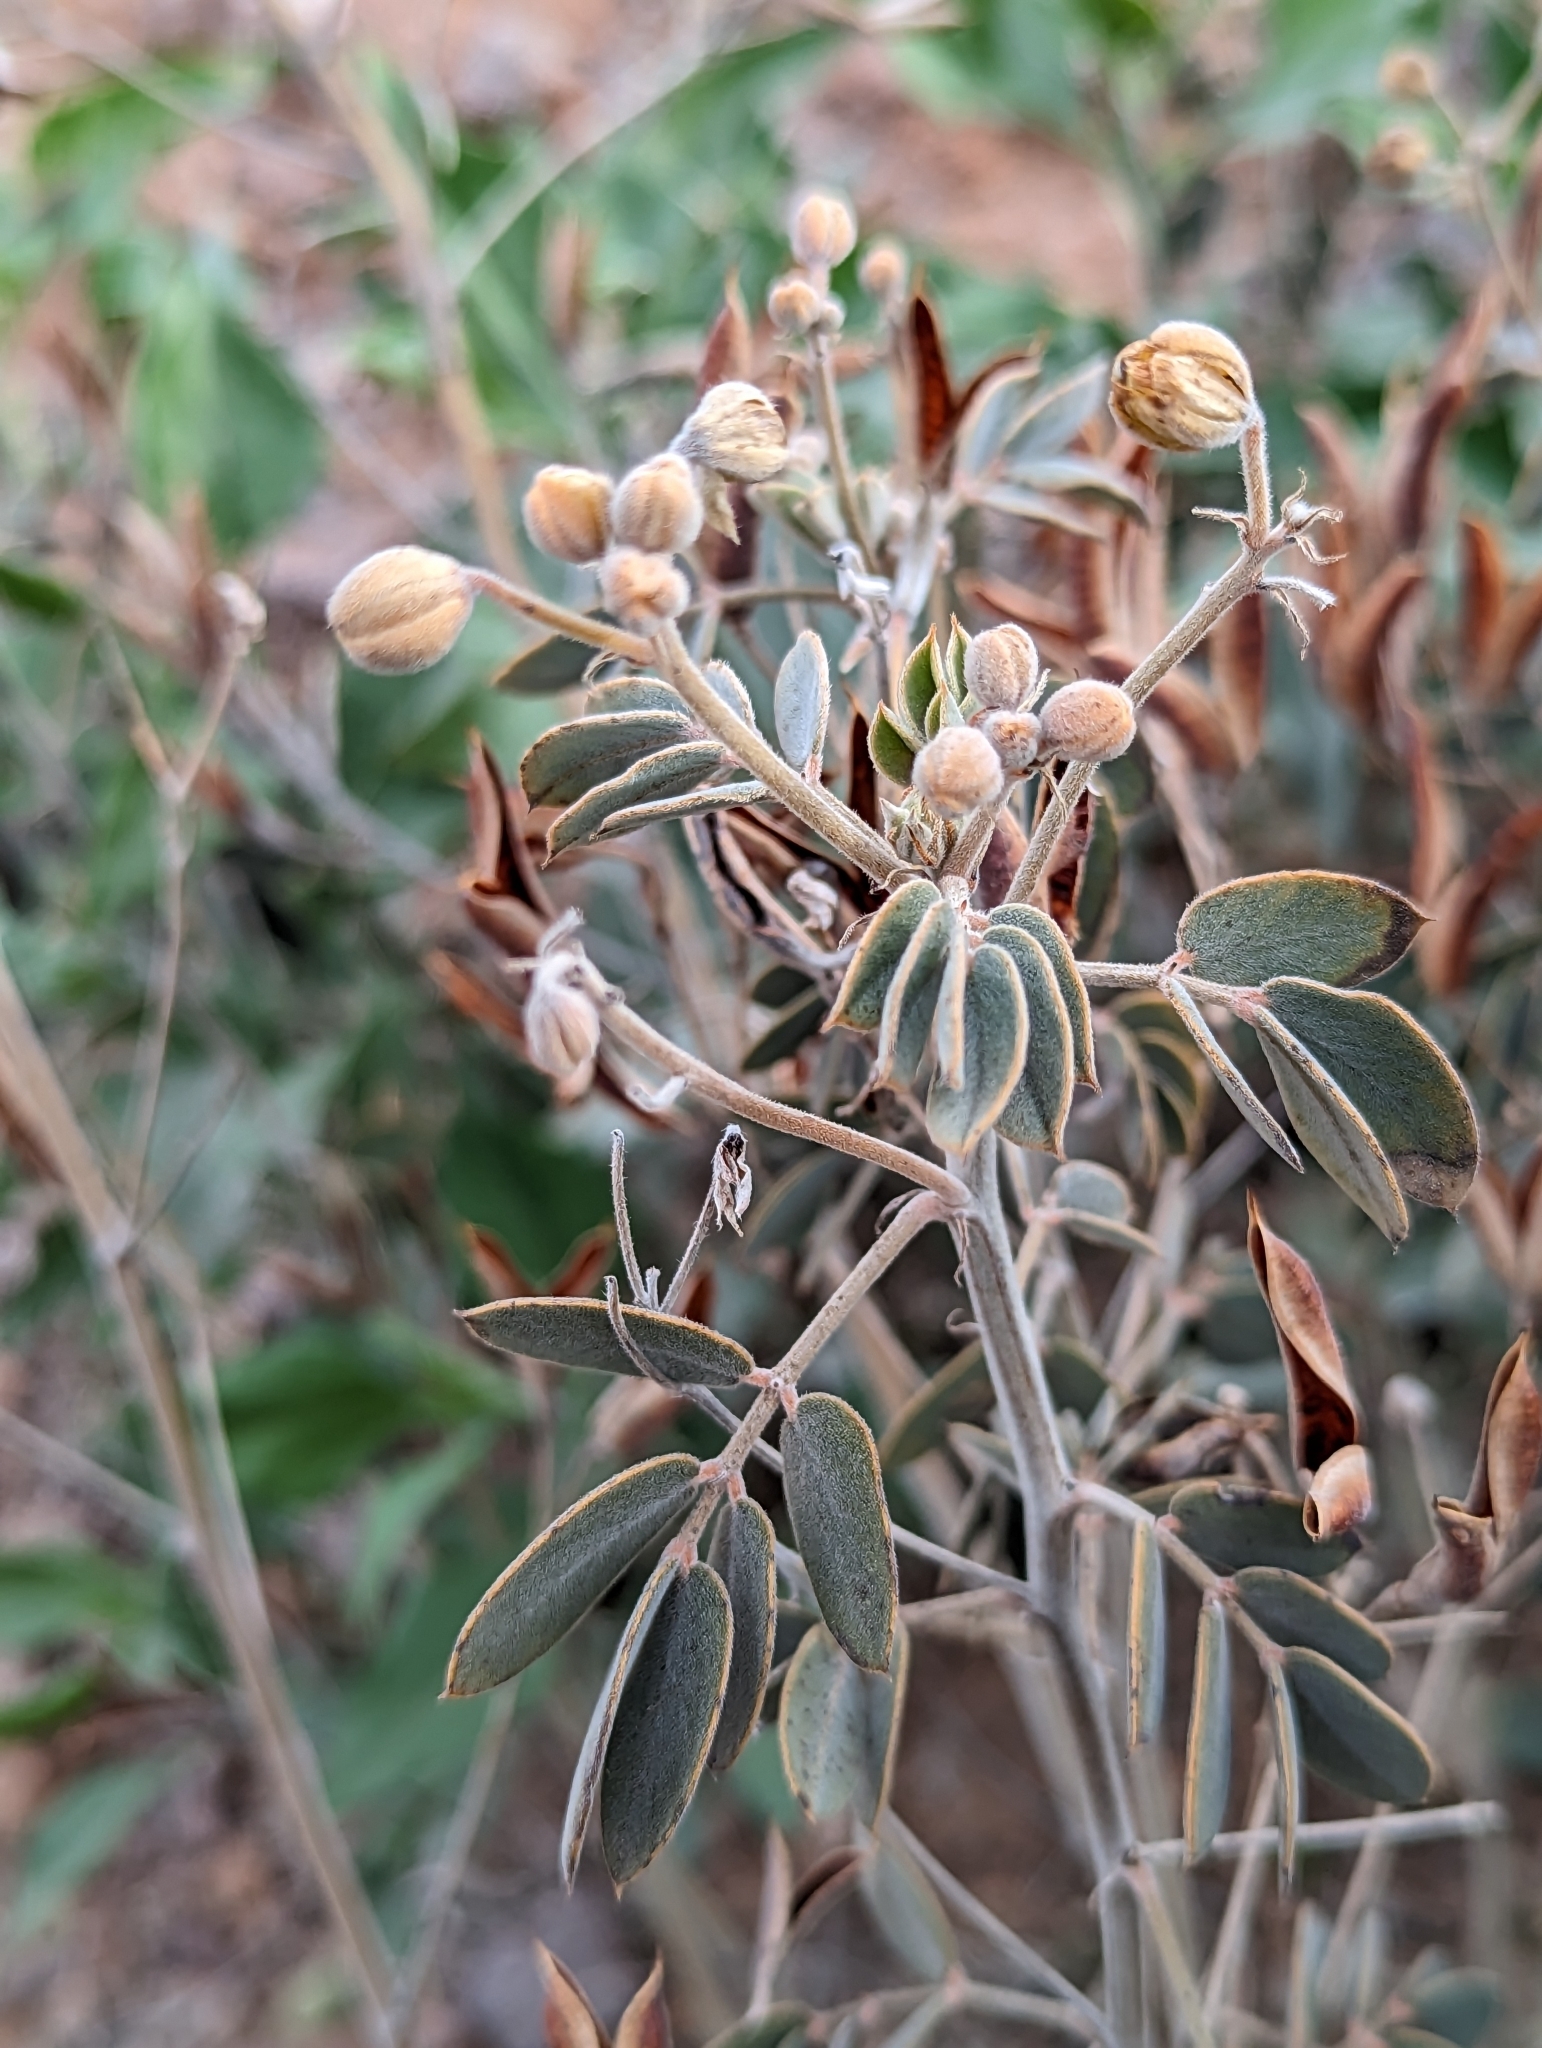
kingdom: Plantae
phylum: Tracheophyta
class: Magnoliopsida
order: Fabales
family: Fabaceae
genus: Senna
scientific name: Senna covesii
